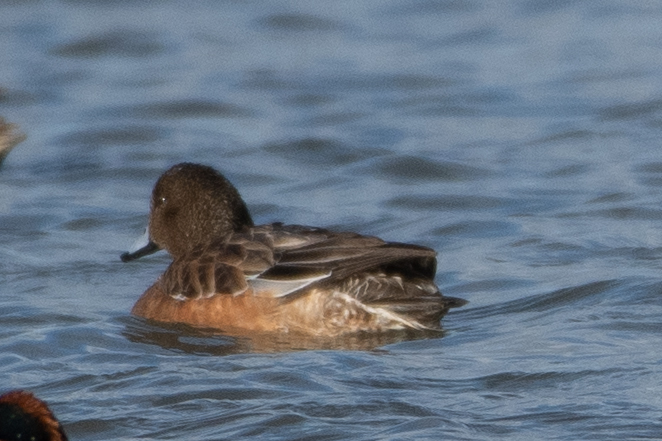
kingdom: Animalia
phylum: Chordata
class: Aves
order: Anseriformes
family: Anatidae
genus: Mareca
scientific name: Mareca americana
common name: American wigeon
